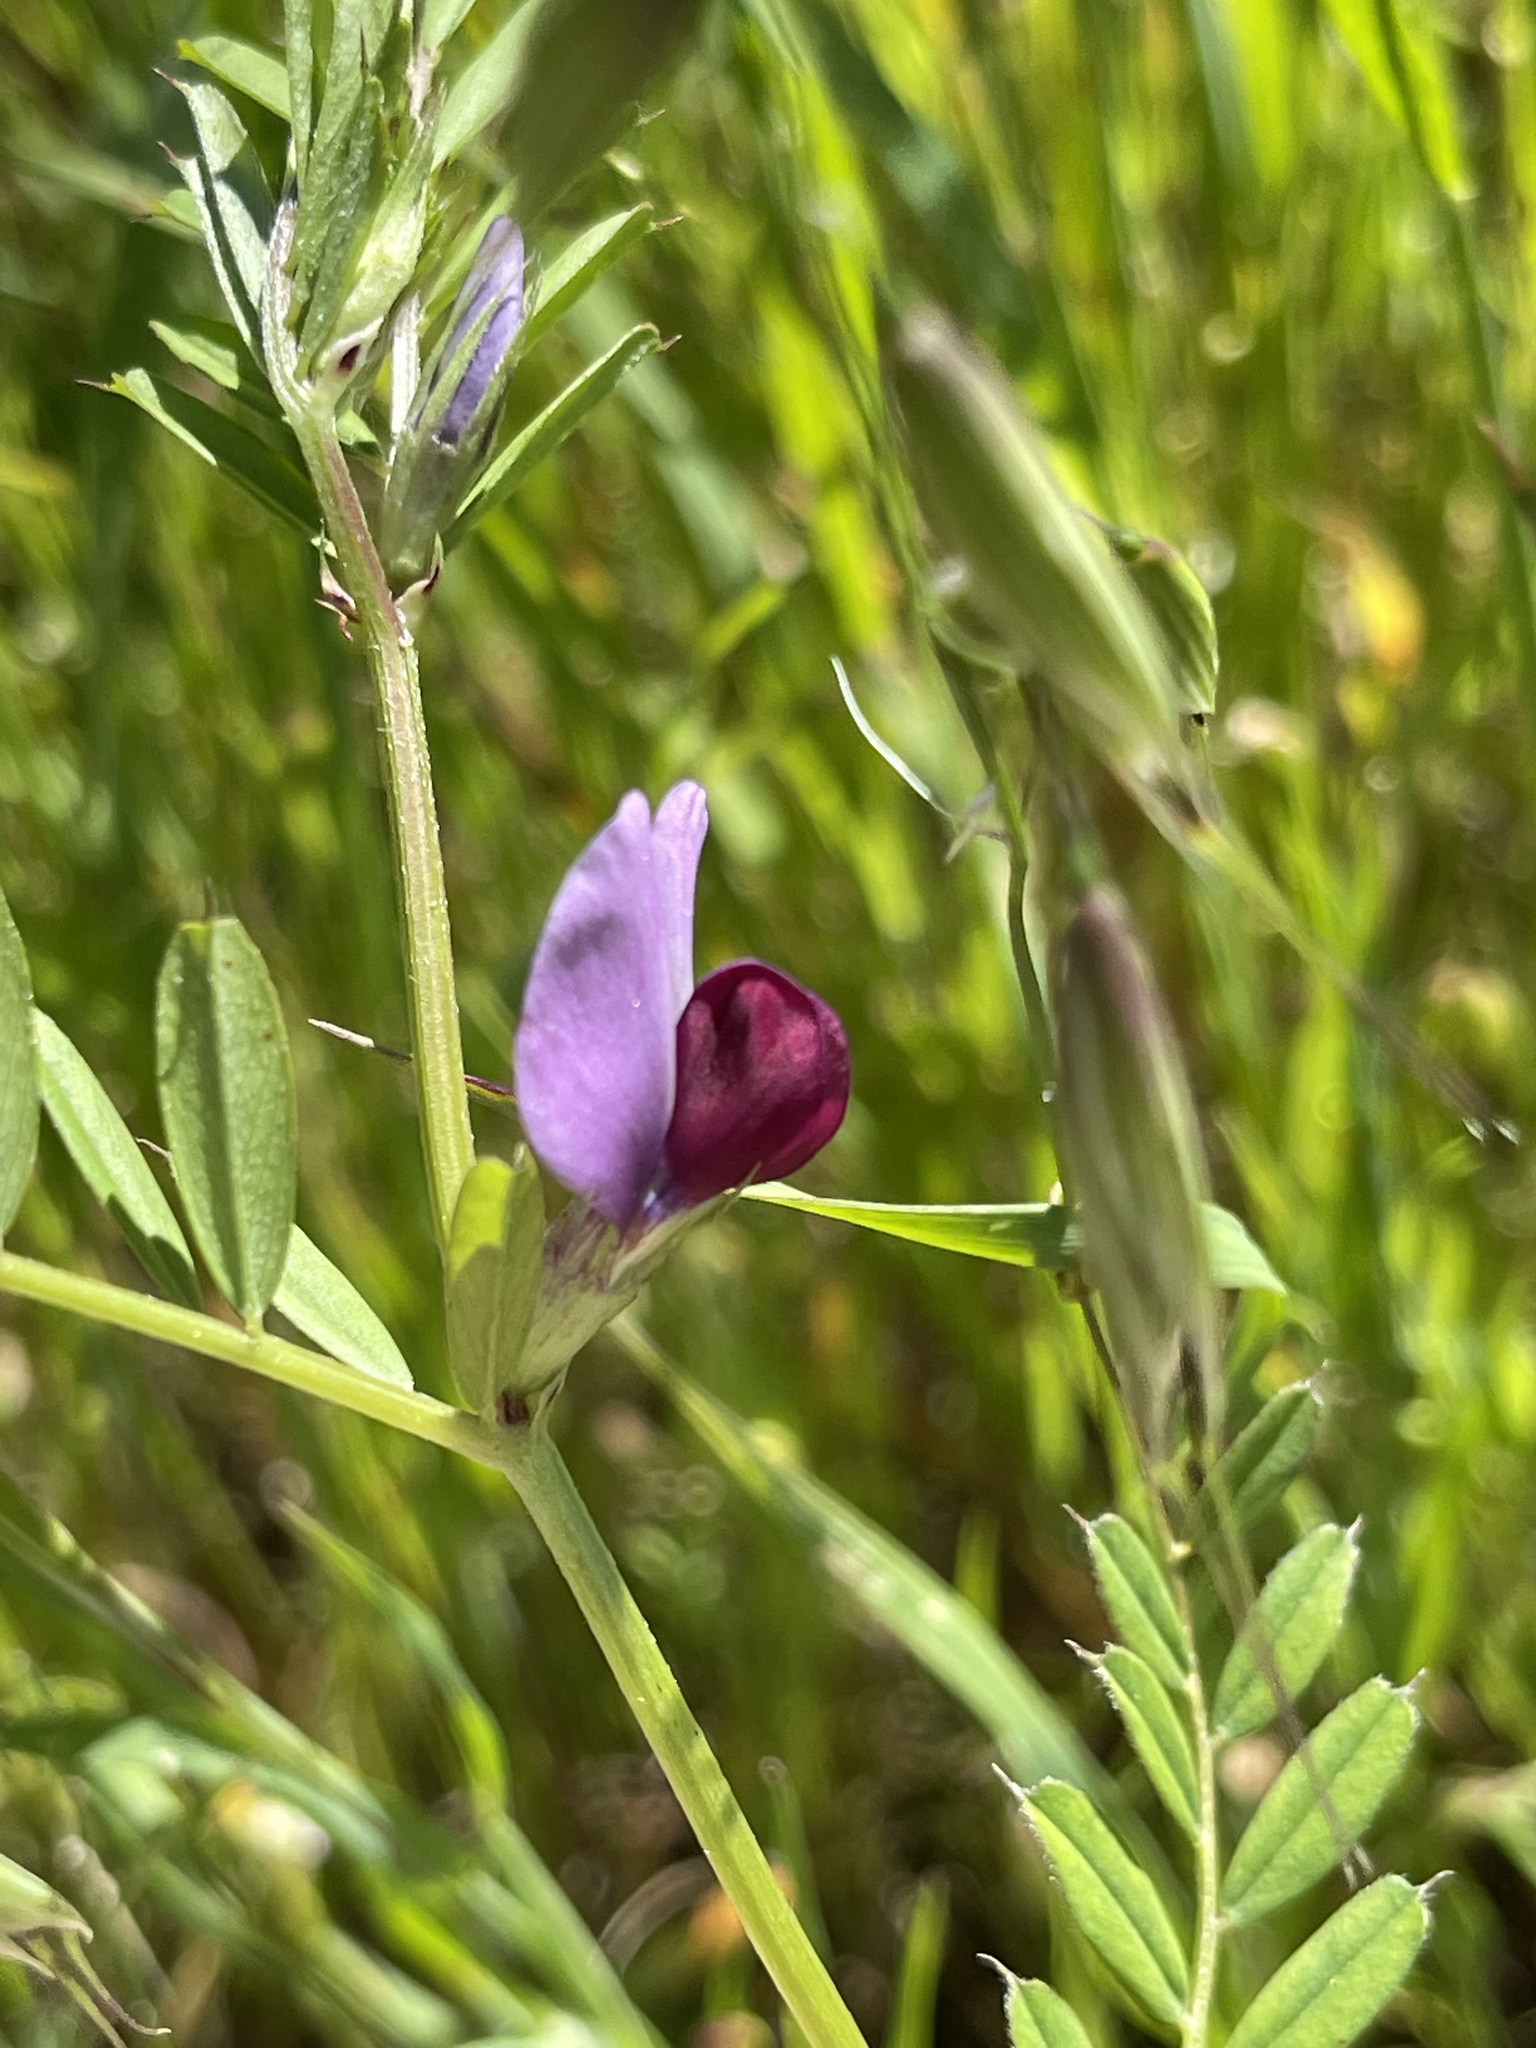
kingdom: Plantae
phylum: Tracheophyta
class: Magnoliopsida
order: Fabales
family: Fabaceae
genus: Vicia
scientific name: Vicia sativa
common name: Garden vetch
